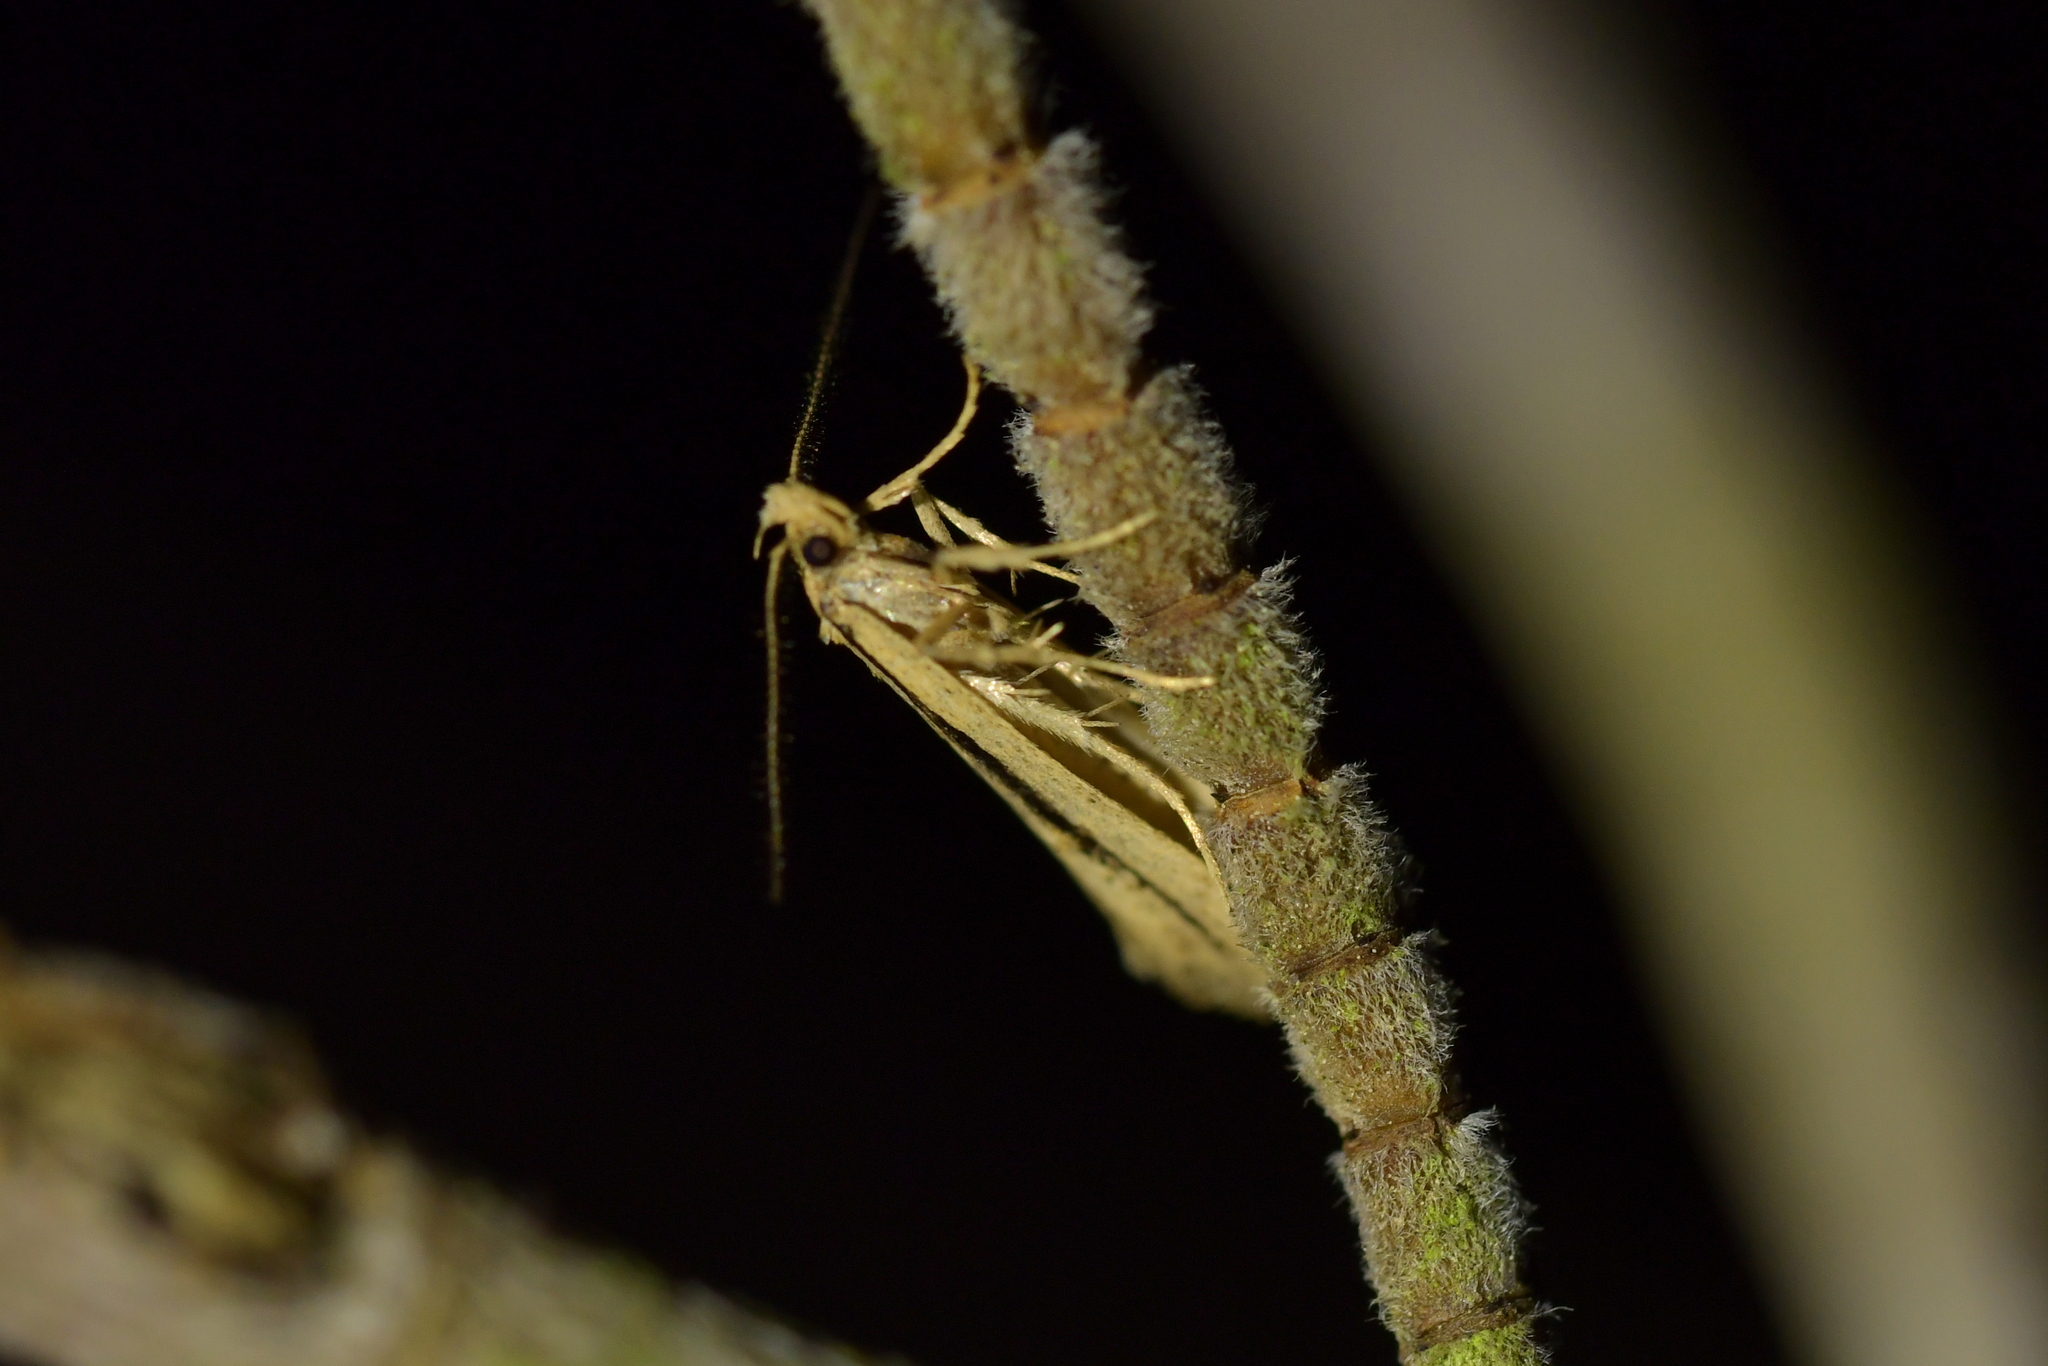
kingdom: Animalia
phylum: Arthropoda
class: Insecta
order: Lepidoptera
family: Oecophoridae
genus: Atomotricha
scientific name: Atomotricha versuta
